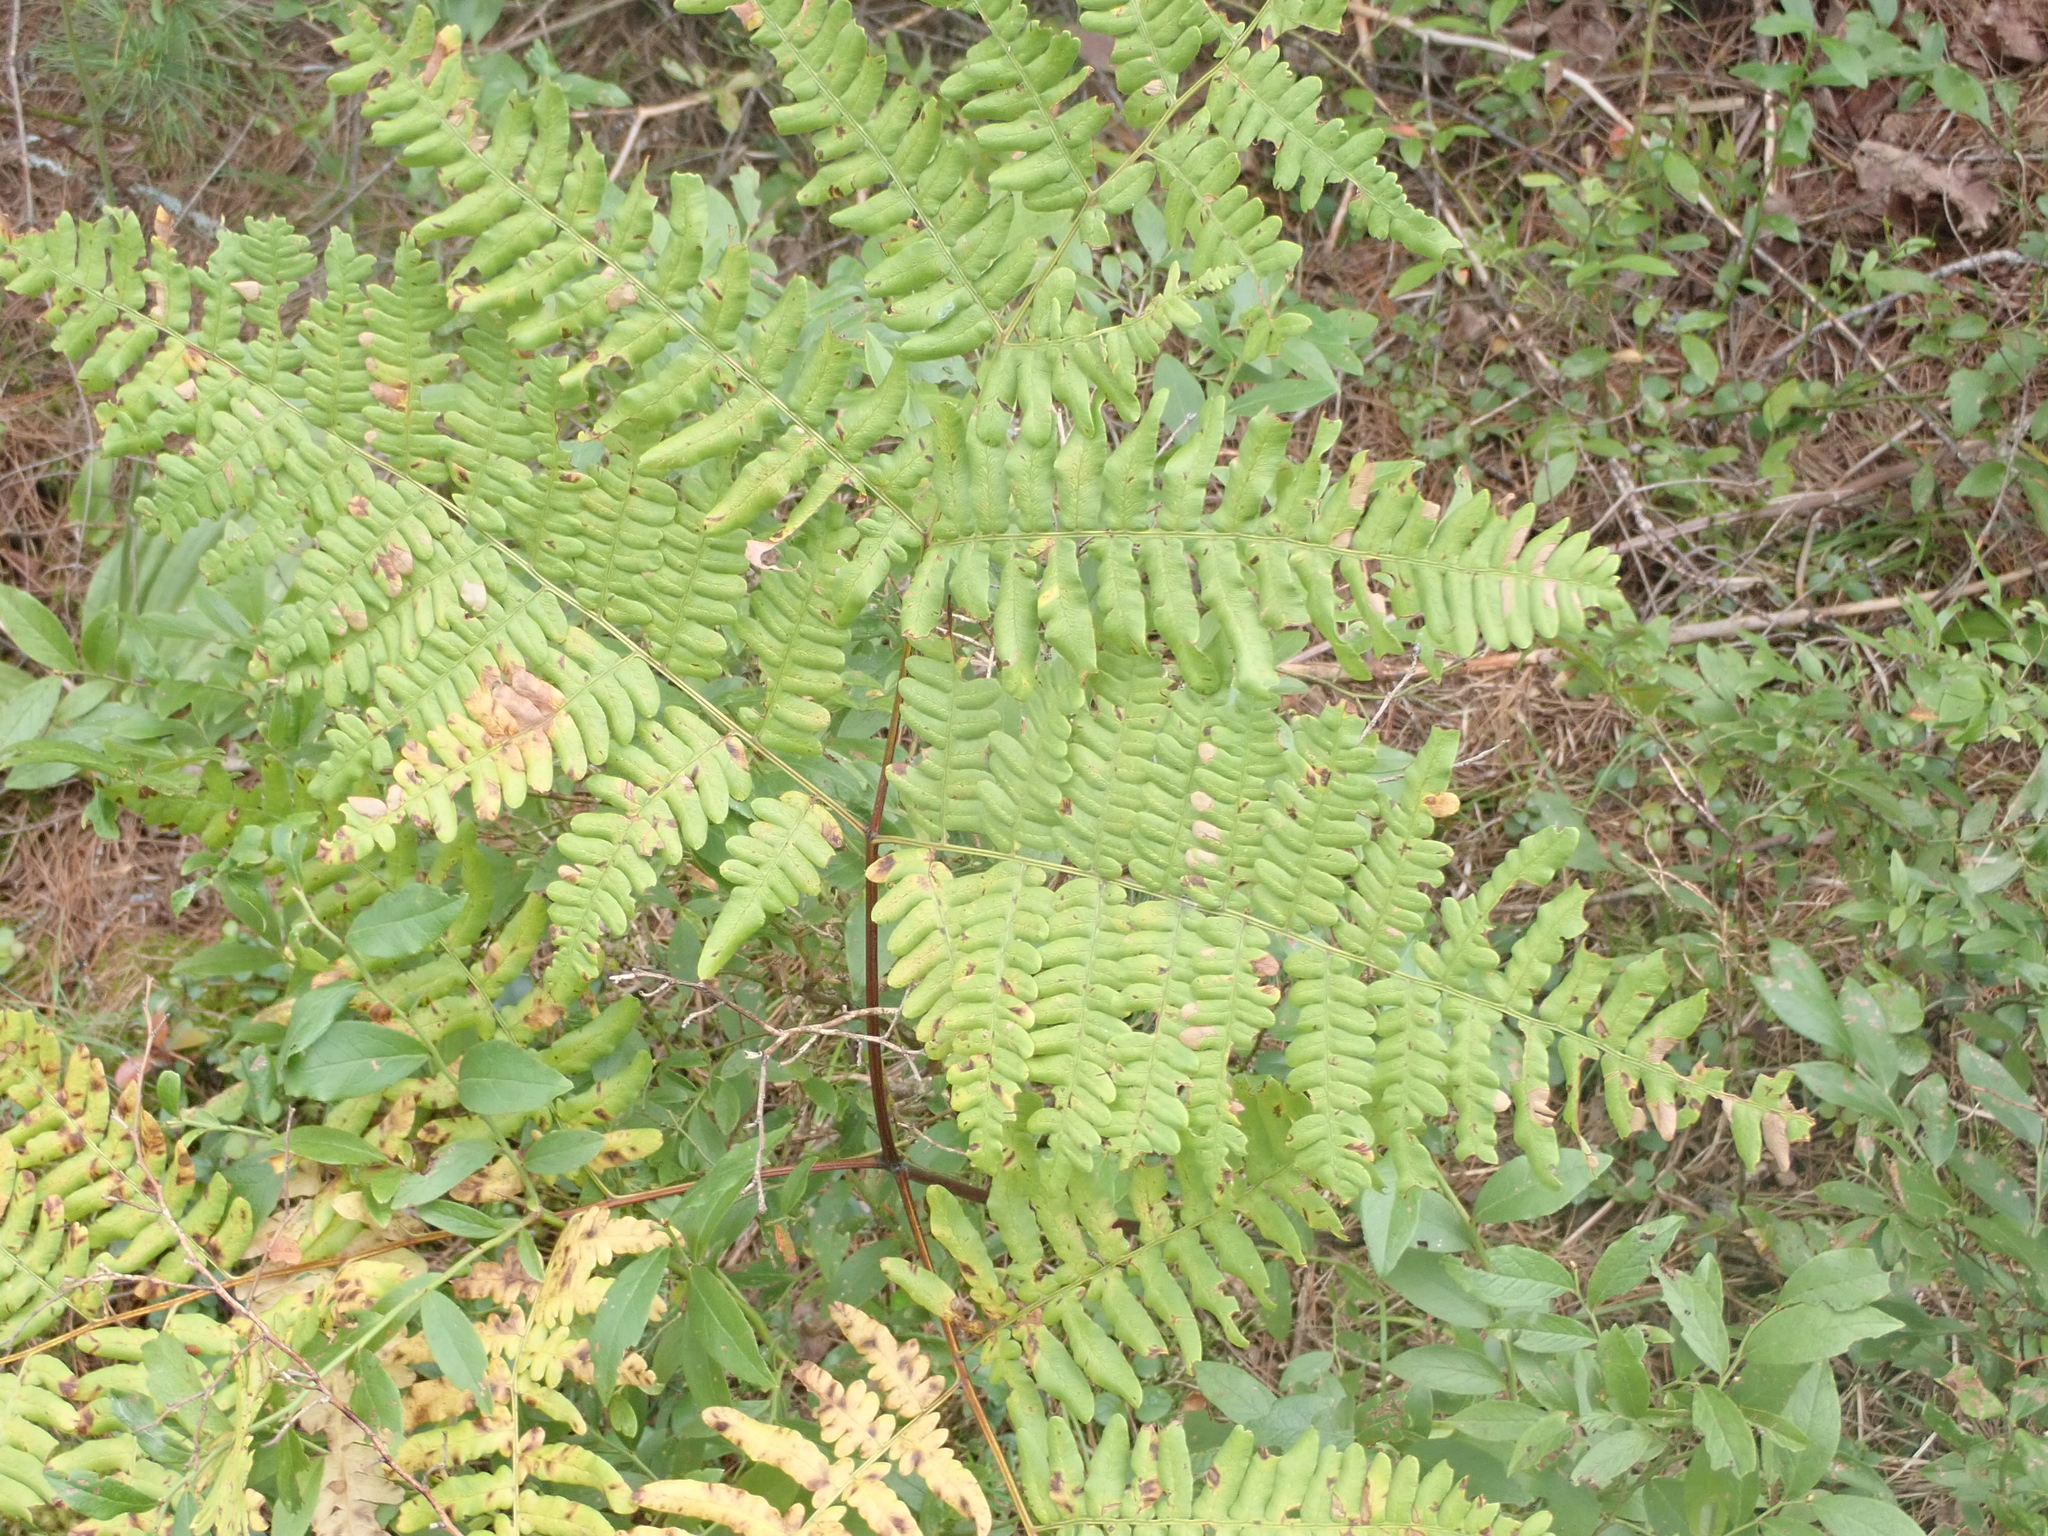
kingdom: Plantae
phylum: Tracheophyta
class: Polypodiopsida
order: Polypodiales
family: Dennstaedtiaceae
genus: Pteridium
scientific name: Pteridium aquilinum
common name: Bracken
